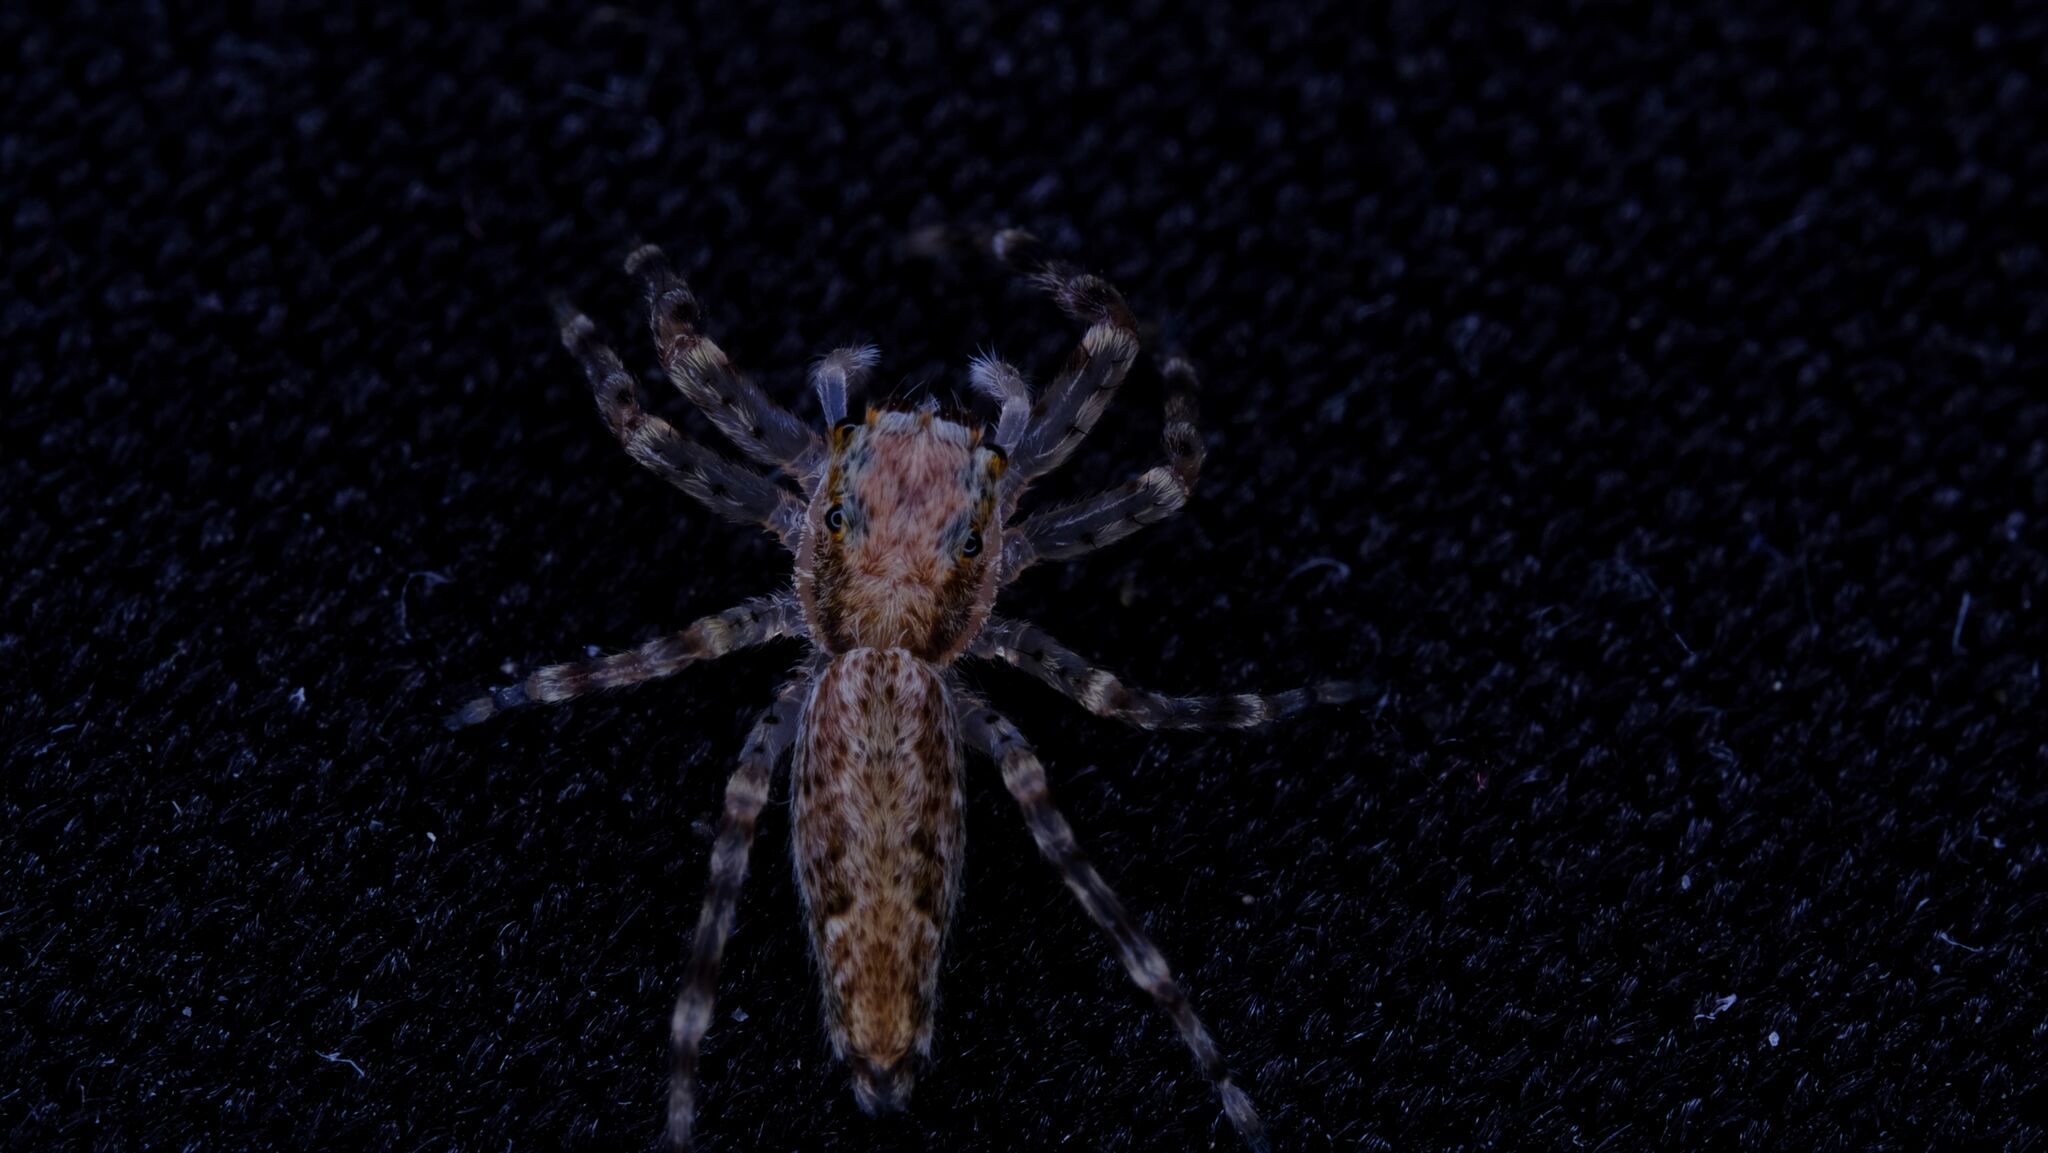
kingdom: Animalia
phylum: Arthropoda
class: Arachnida
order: Araneae
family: Salticidae
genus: Helpis
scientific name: Helpis minitabunda
